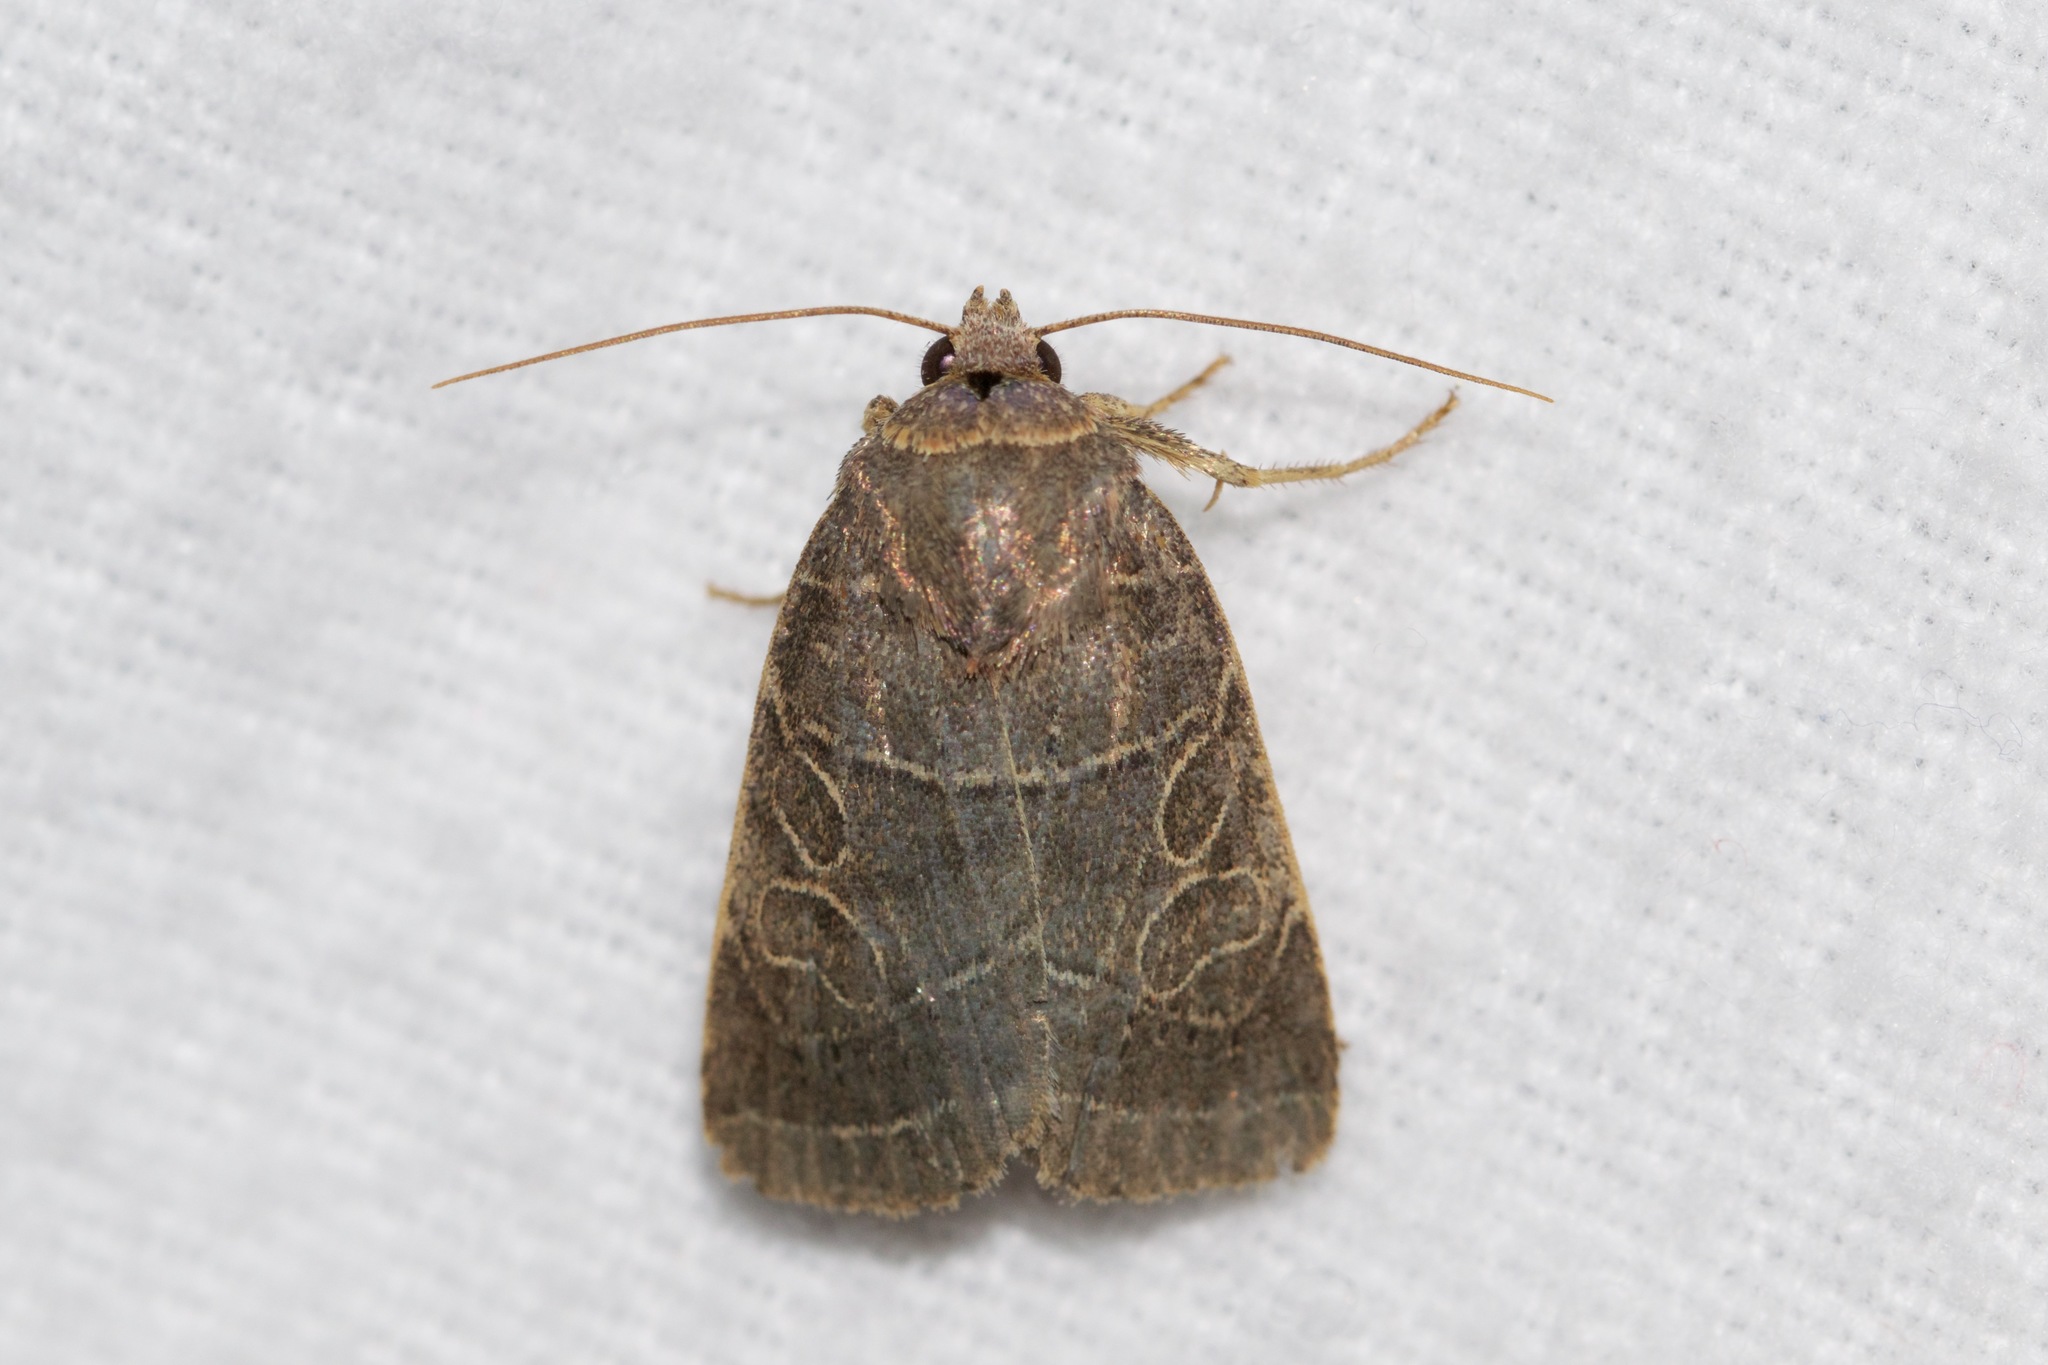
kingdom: Animalia
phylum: Arthropoda
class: Insecta
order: Lepidoptera
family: Noctuidae
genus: Orthodes
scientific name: Orthodes majuscula
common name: Rustic quaker
